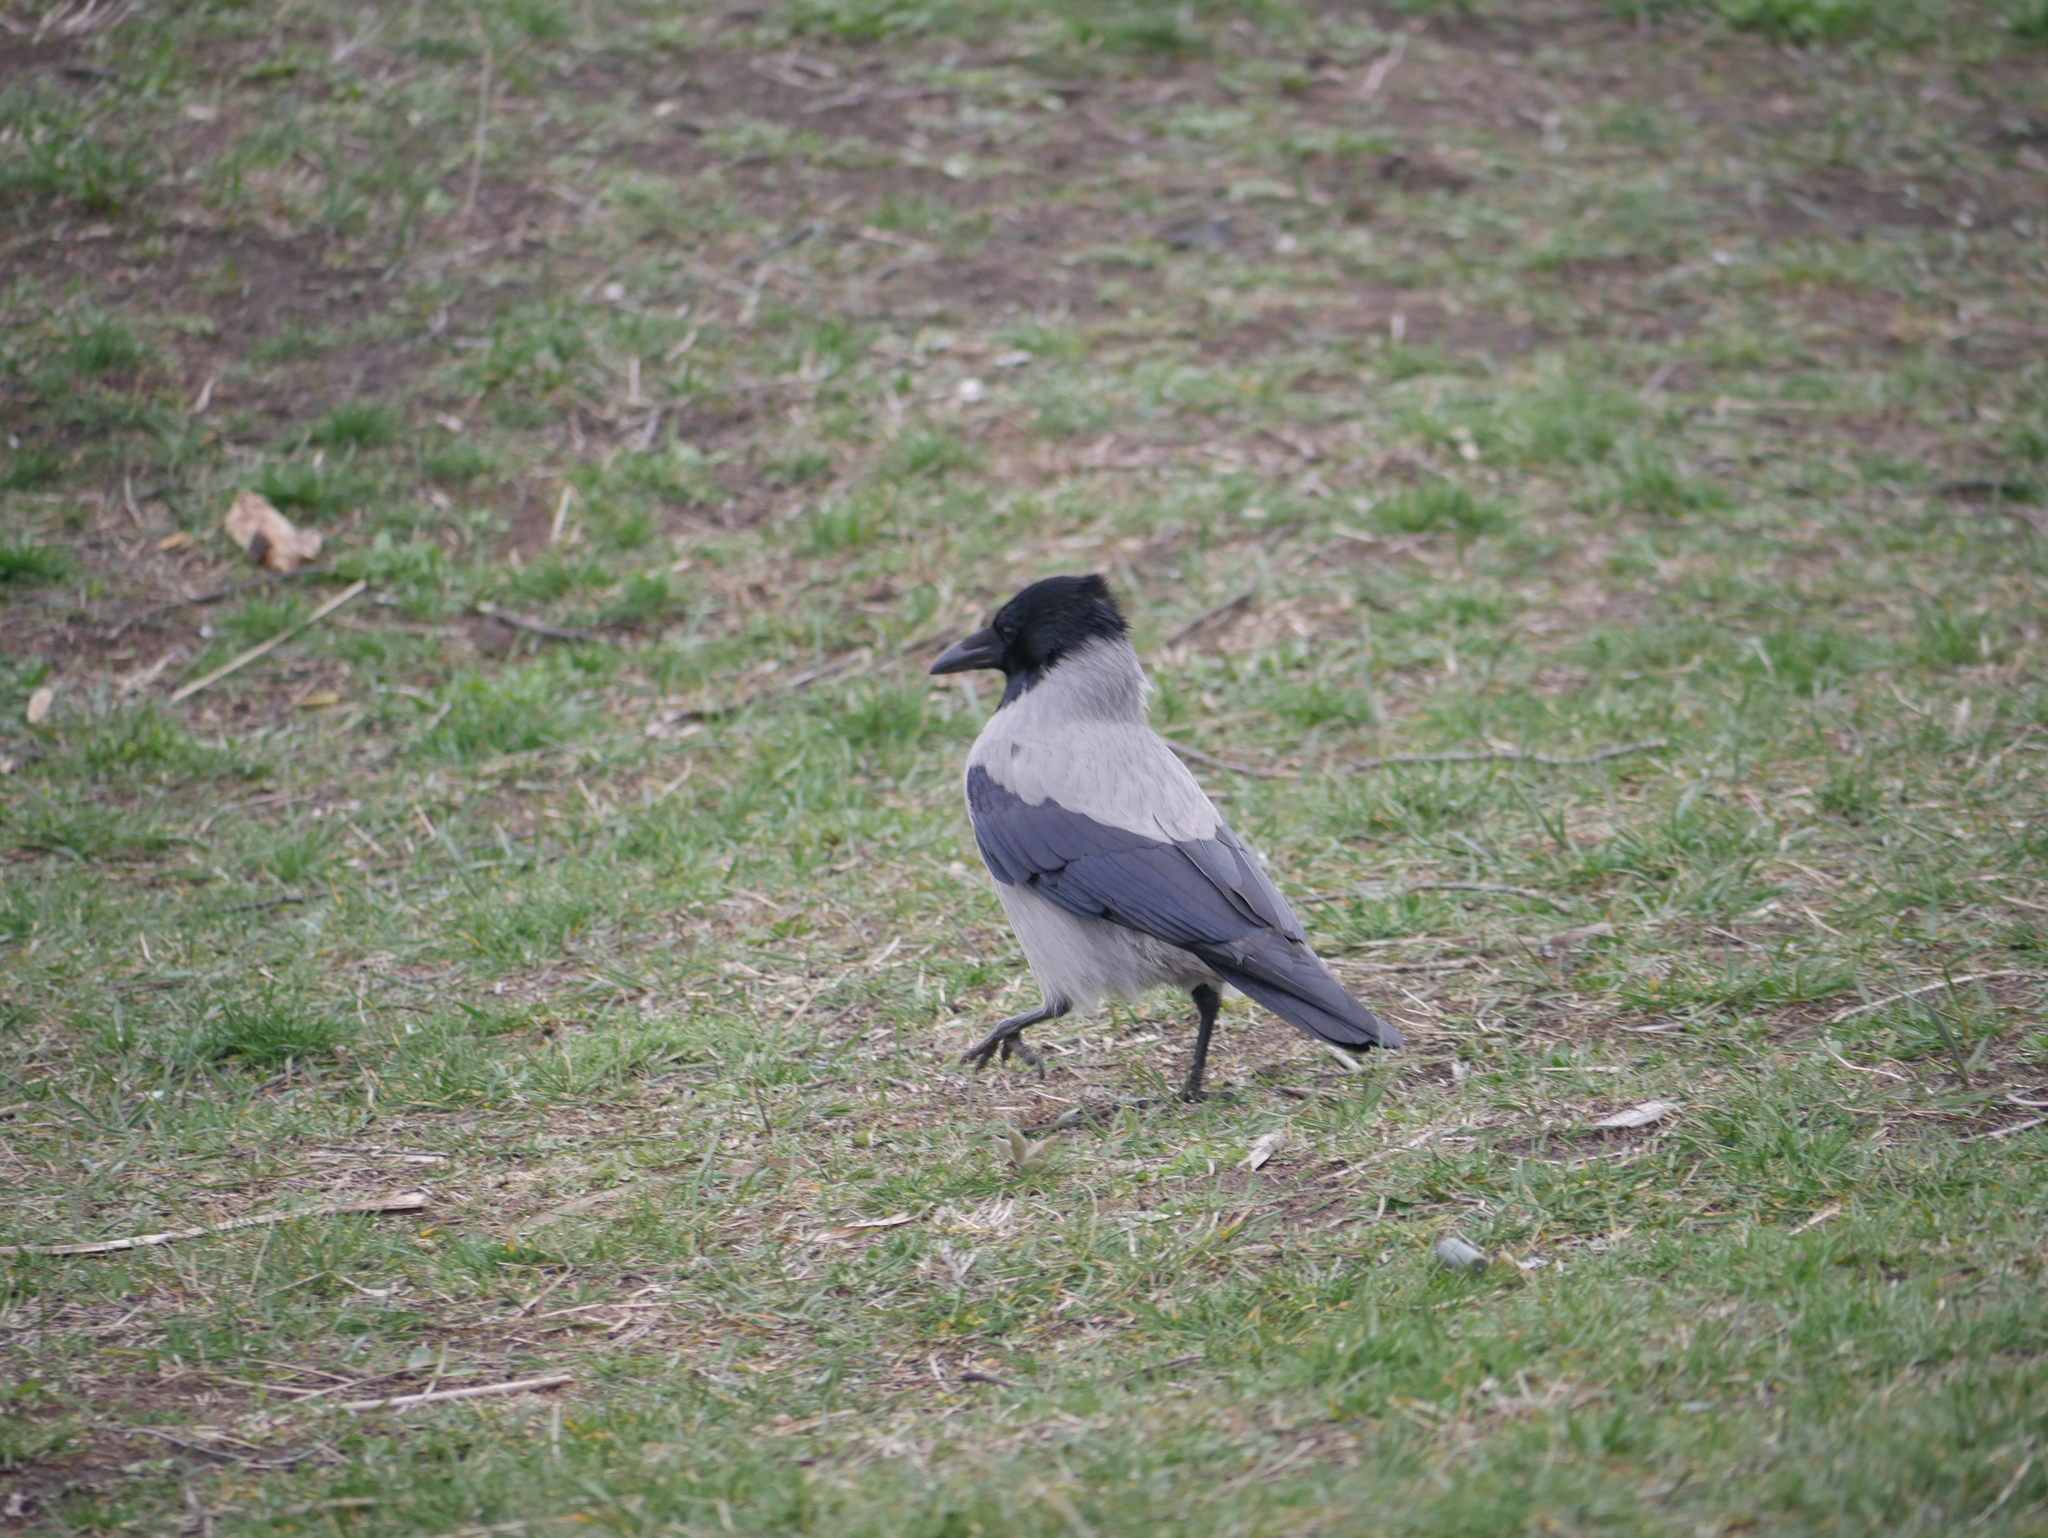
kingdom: Animalia
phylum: Chordata
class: Aves
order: Passeriformes
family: Corvidae
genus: Corvus
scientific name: Corvus cornix
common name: Hooded crow
